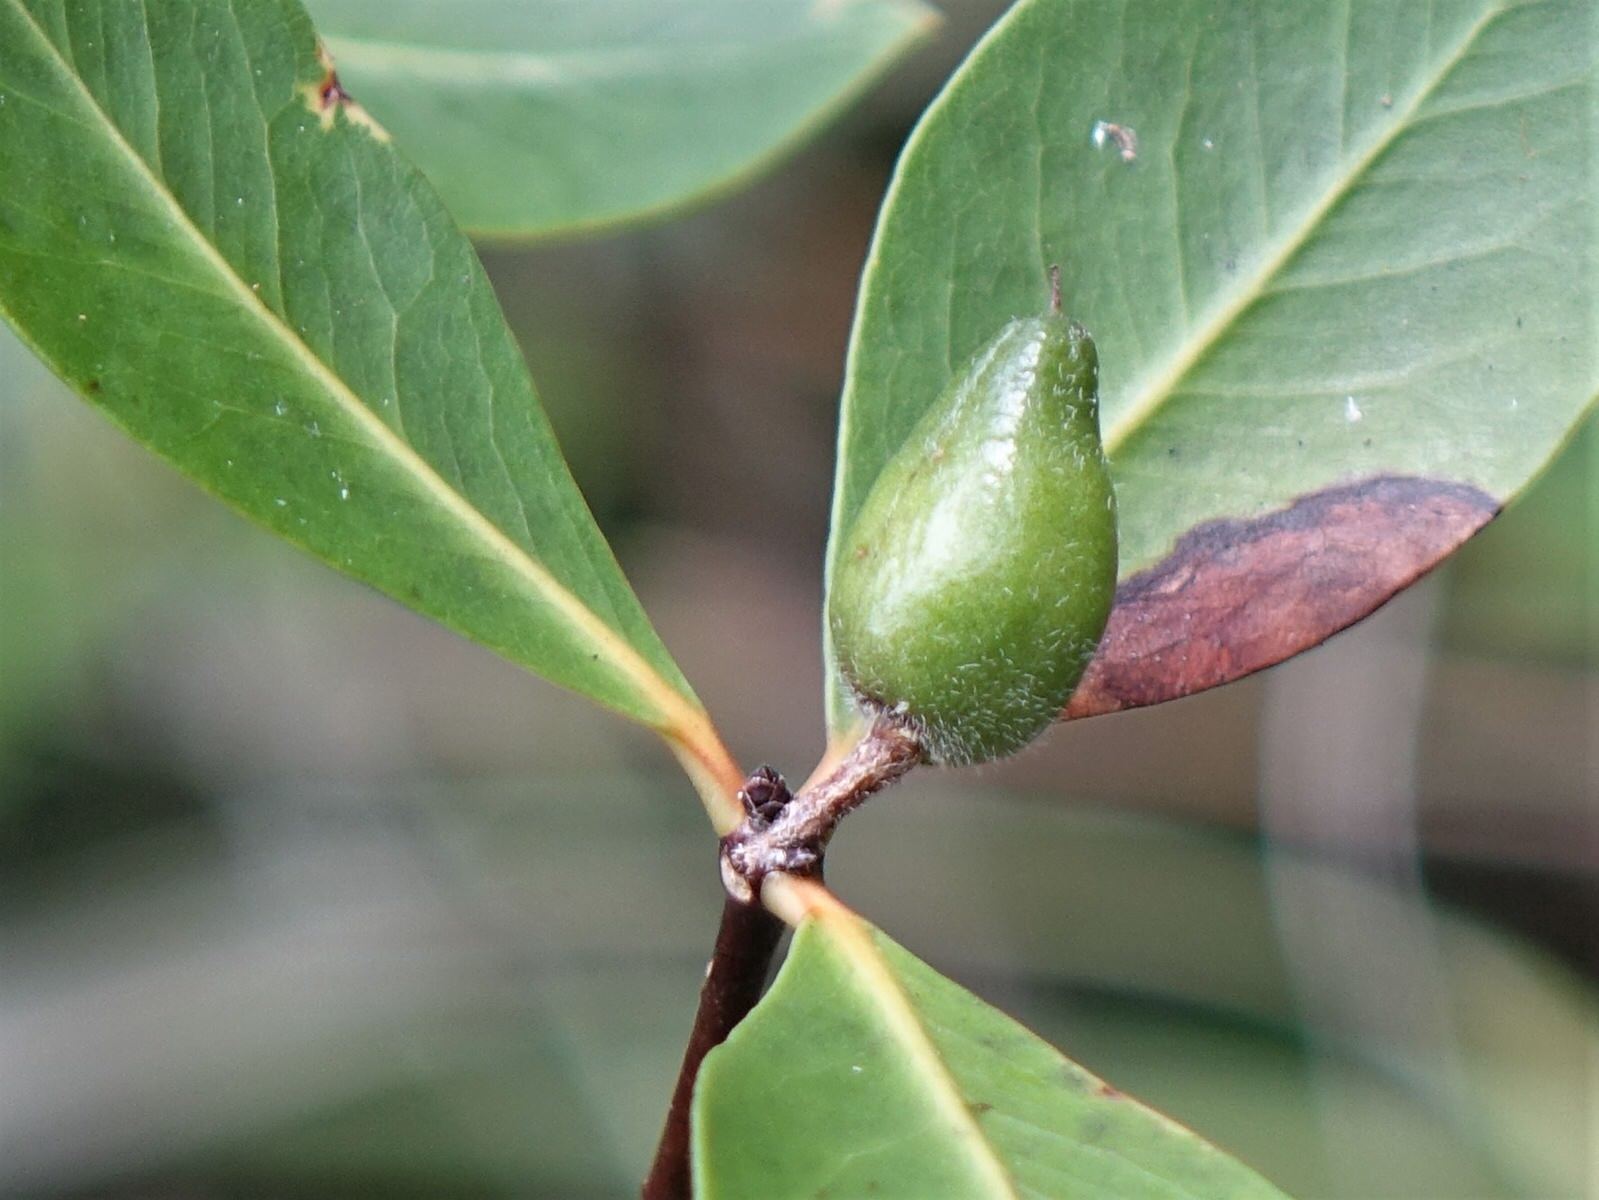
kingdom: Plantae
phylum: Tracheophyta
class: Magnoliopsida
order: Apiales
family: Pittosporaceae
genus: Pittosporum
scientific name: Pittosporum cornifolium
